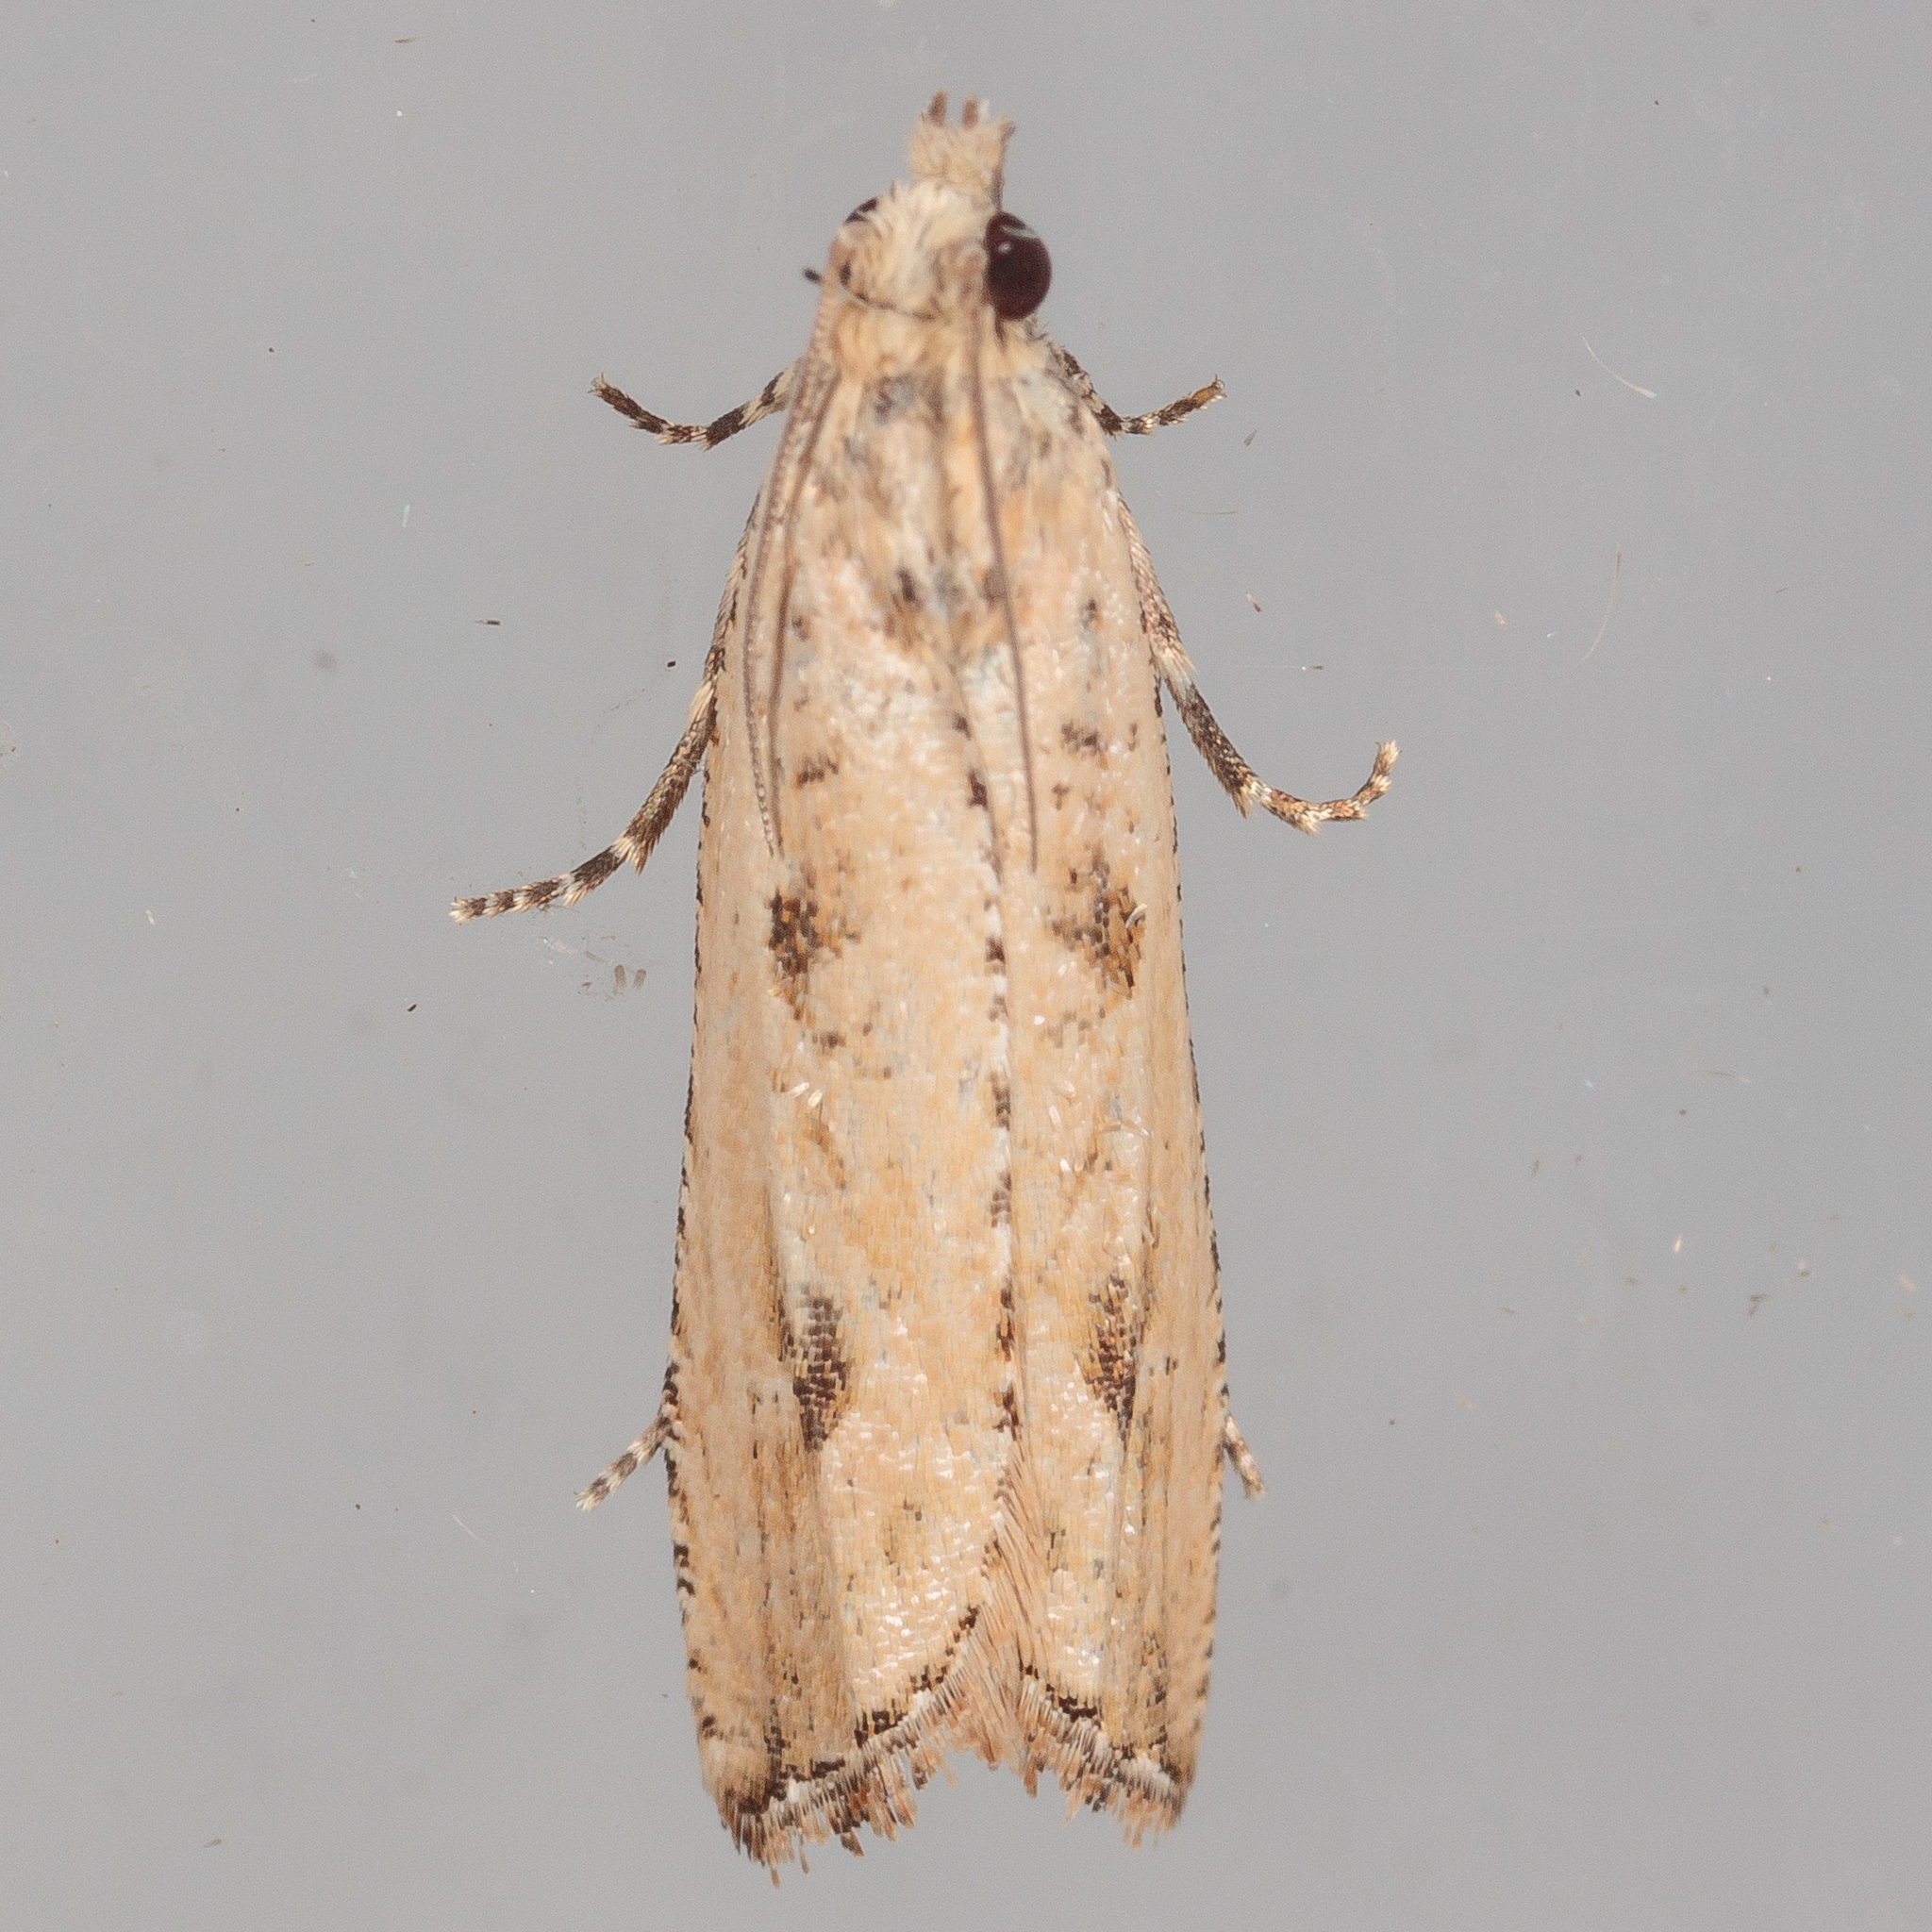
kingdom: Animalia
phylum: Arthropoda
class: Insecta
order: Lepidoptera
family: Tortricidae
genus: Bactra
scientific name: Bactra verutana
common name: Javelin moth
